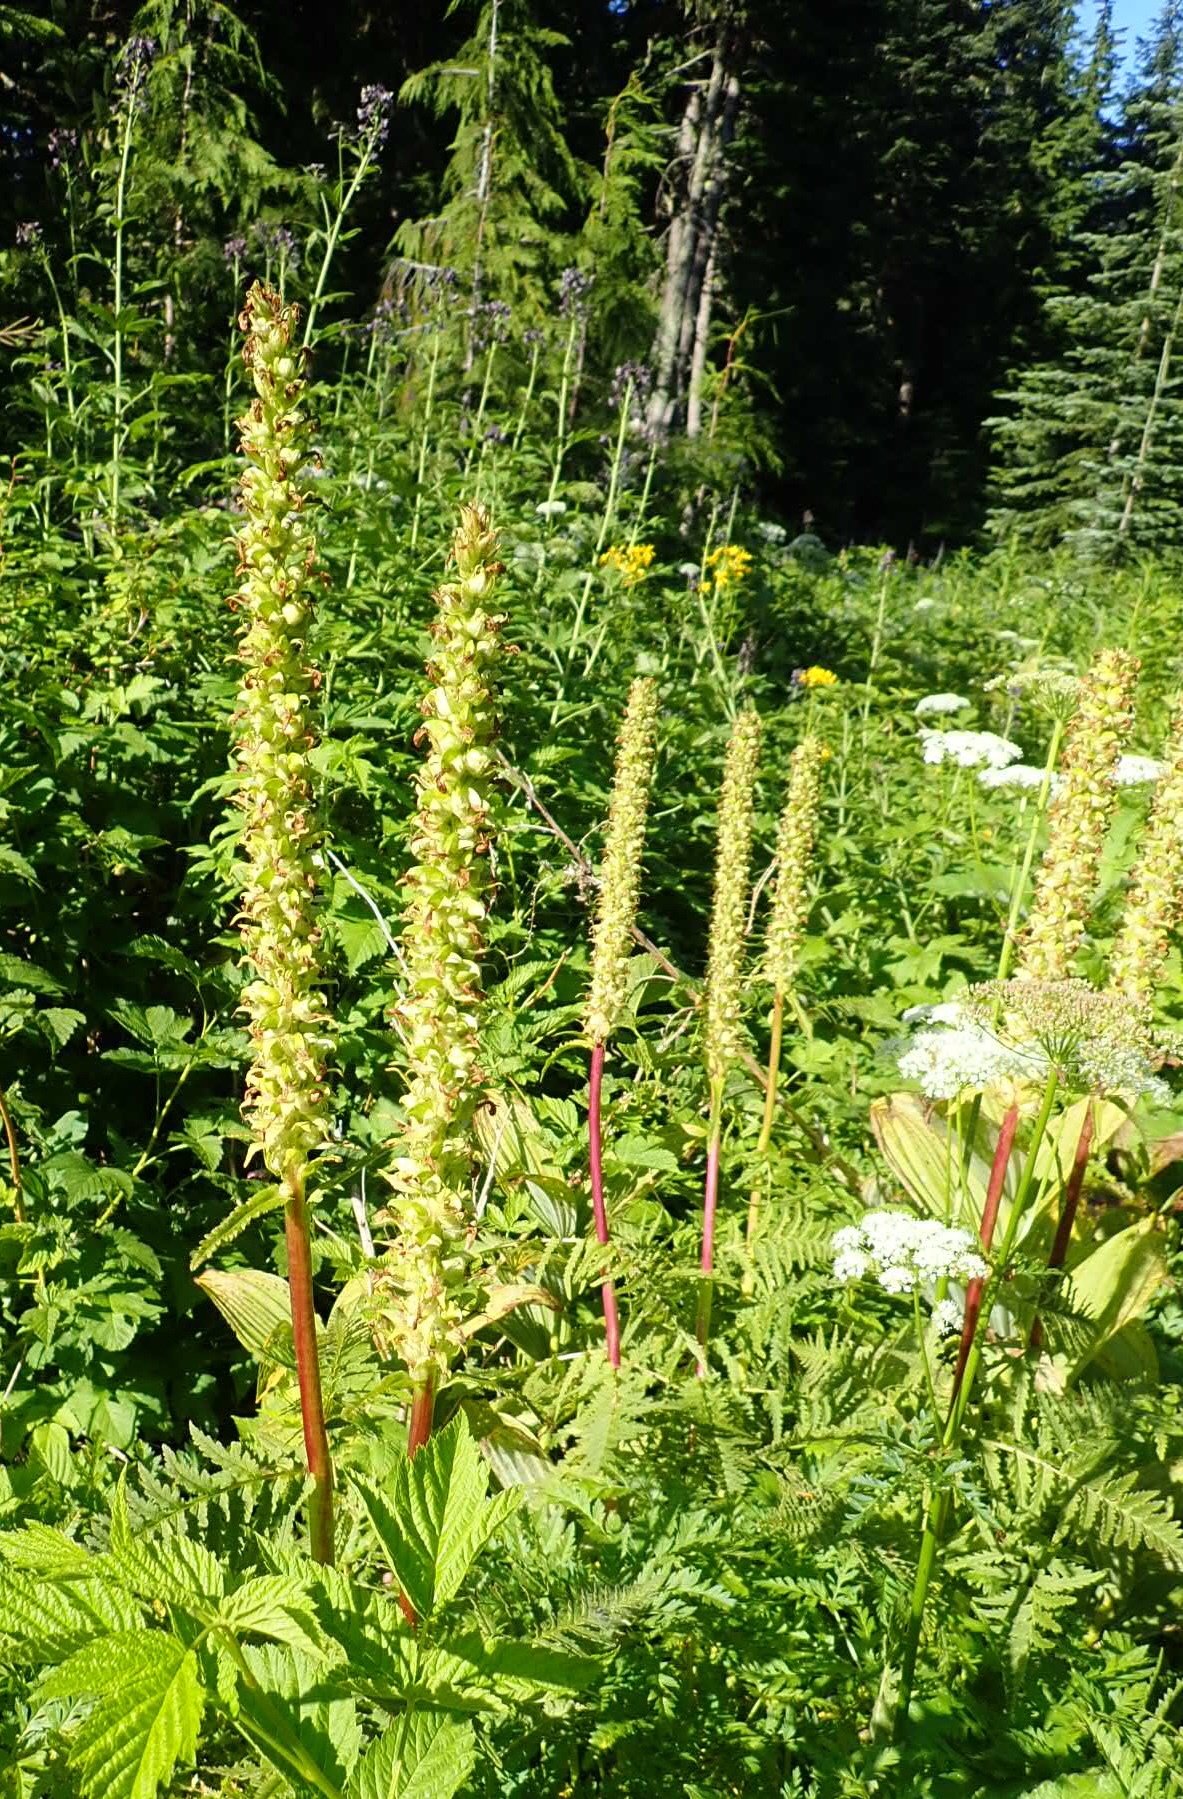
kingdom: Plantae
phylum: Tracheophyta
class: Magnoliopsida
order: Lamiales
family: Orobanchaceae
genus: Pedicularis
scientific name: Pedicularis bracteosa
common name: Bracted lousewort
